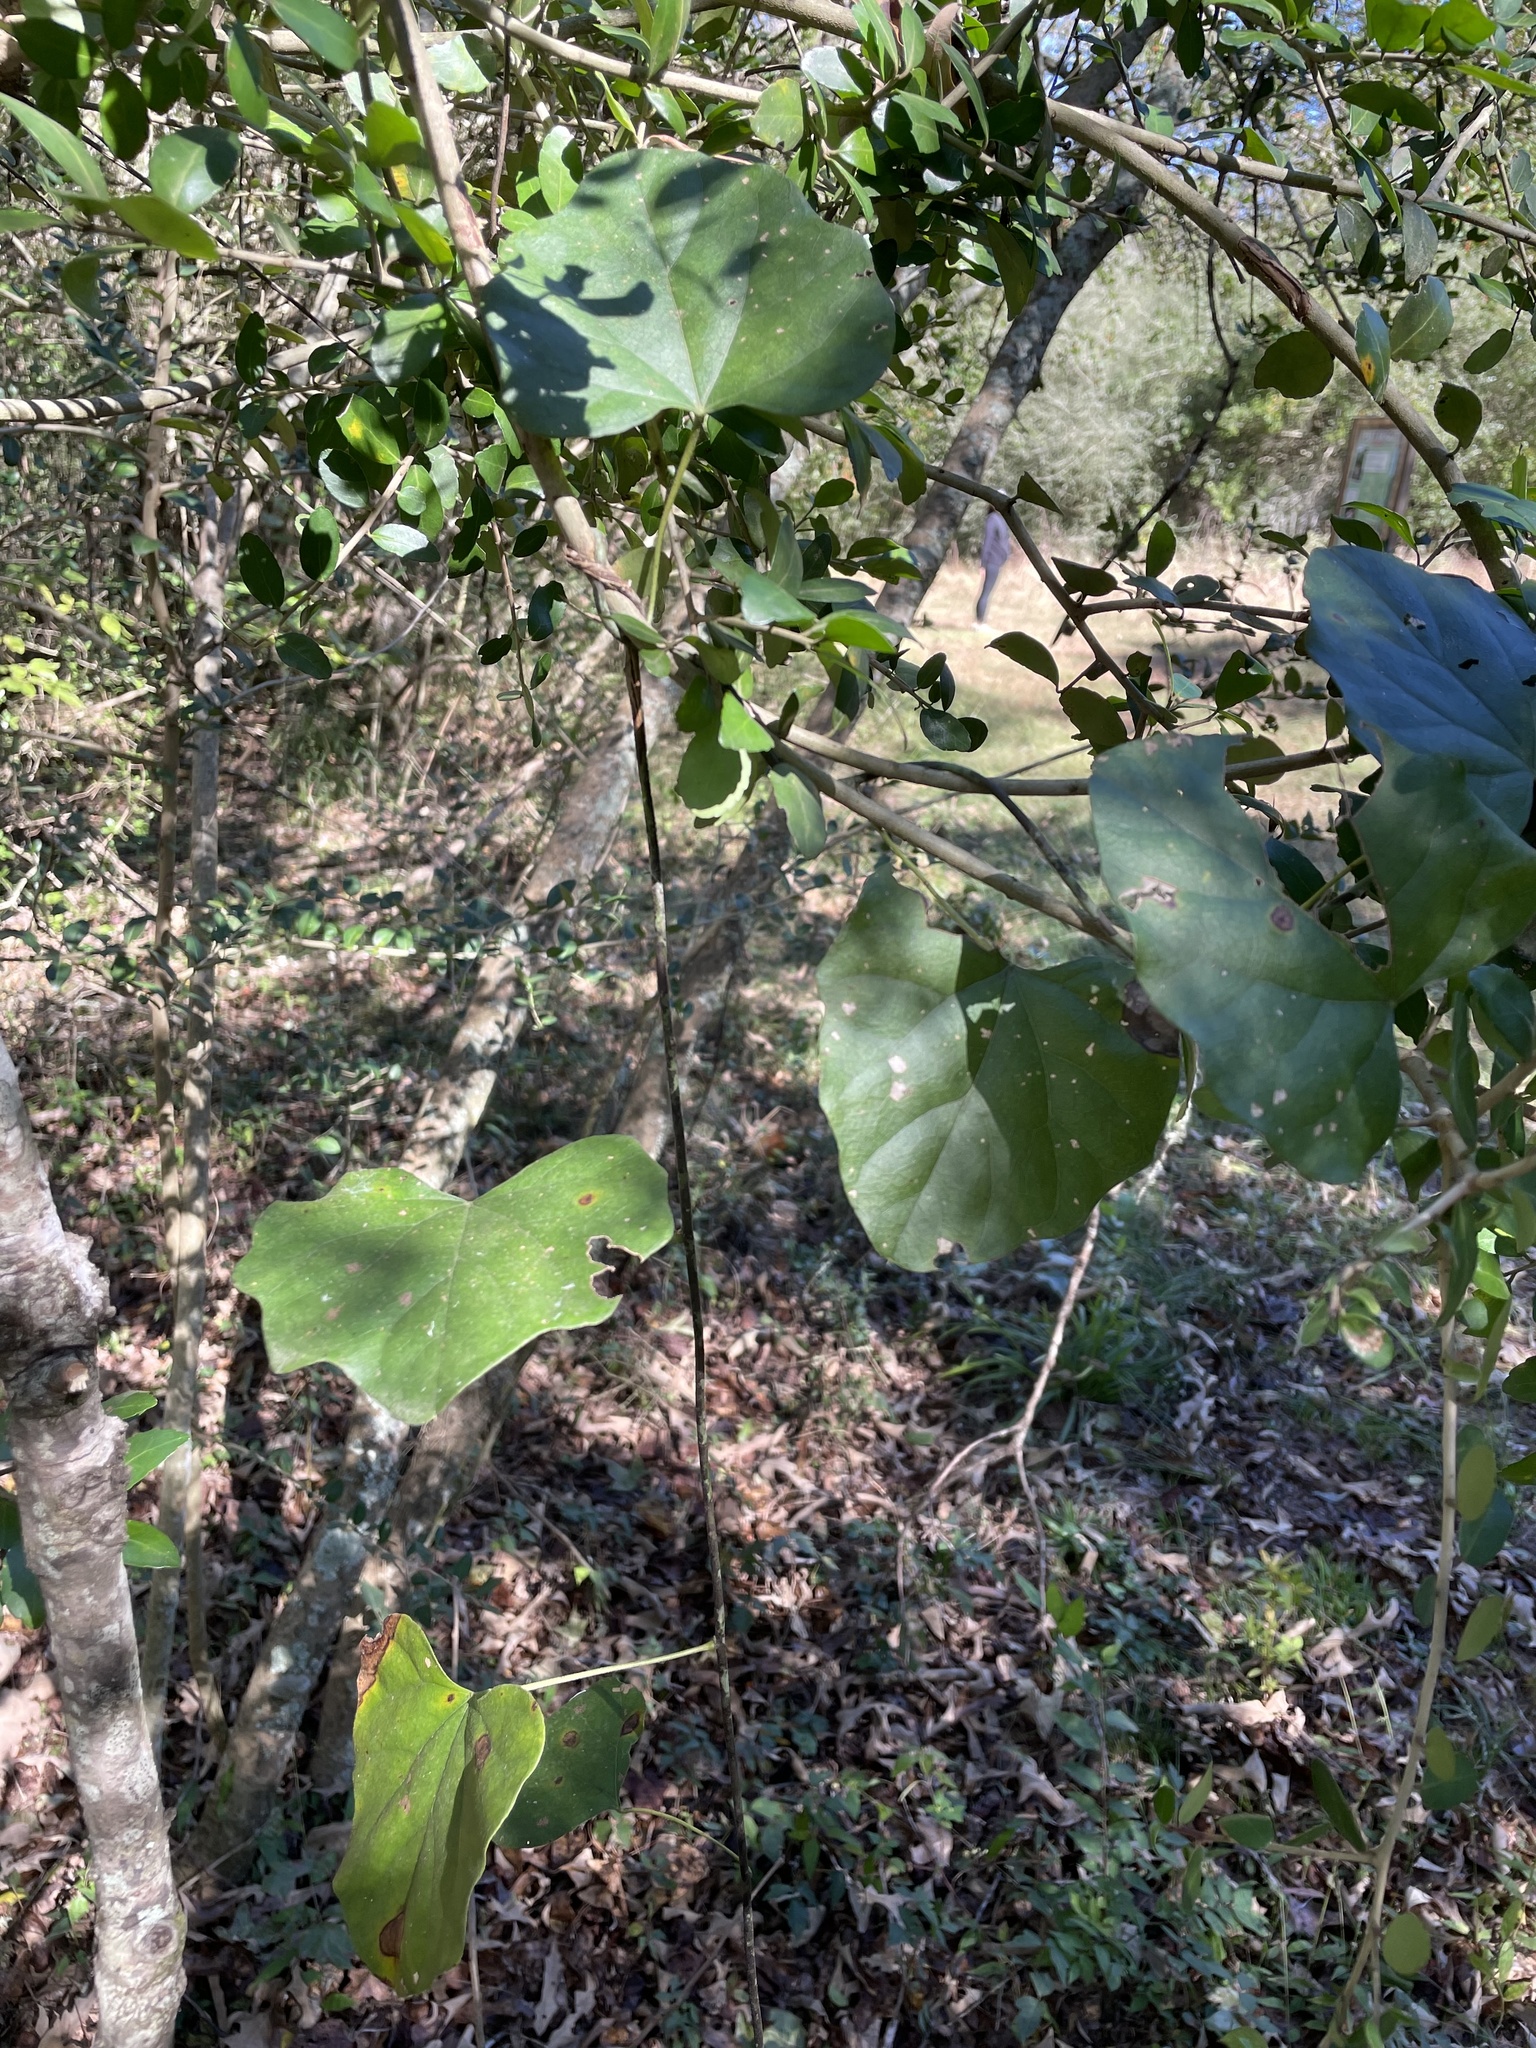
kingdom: Plantae
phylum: Tracheophyta
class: Magnoliopsida
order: Ranunculales
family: Menispermaceae
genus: Cocculus
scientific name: Cocculus carolinus
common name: Carolina moonseed
